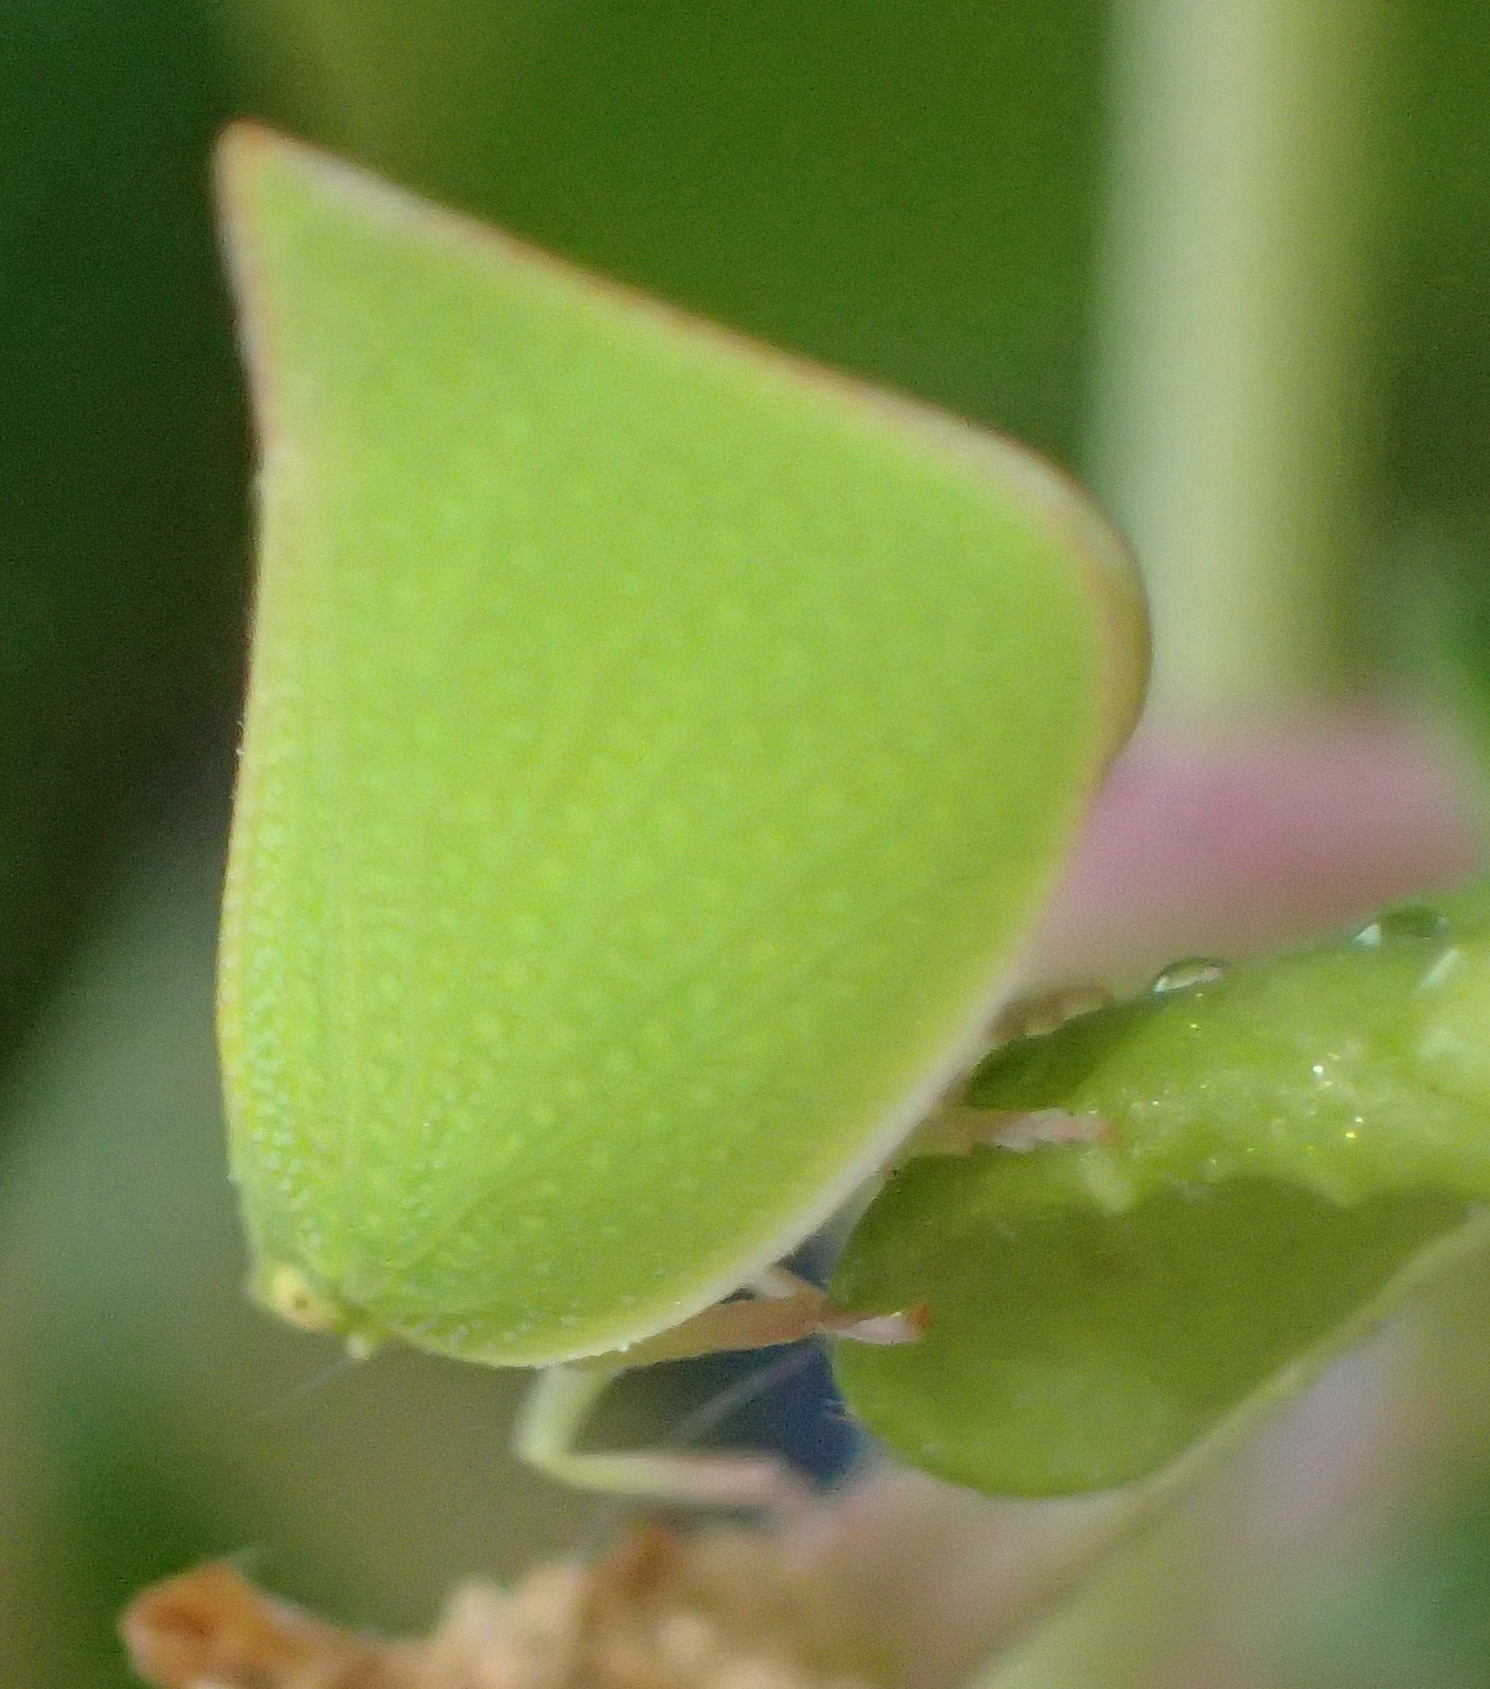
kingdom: Animalia
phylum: Arthropoda
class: Insecta
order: Hemiptera
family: Flatidae
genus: Siphanta
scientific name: Siphanta acuta
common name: Torpedo bug
